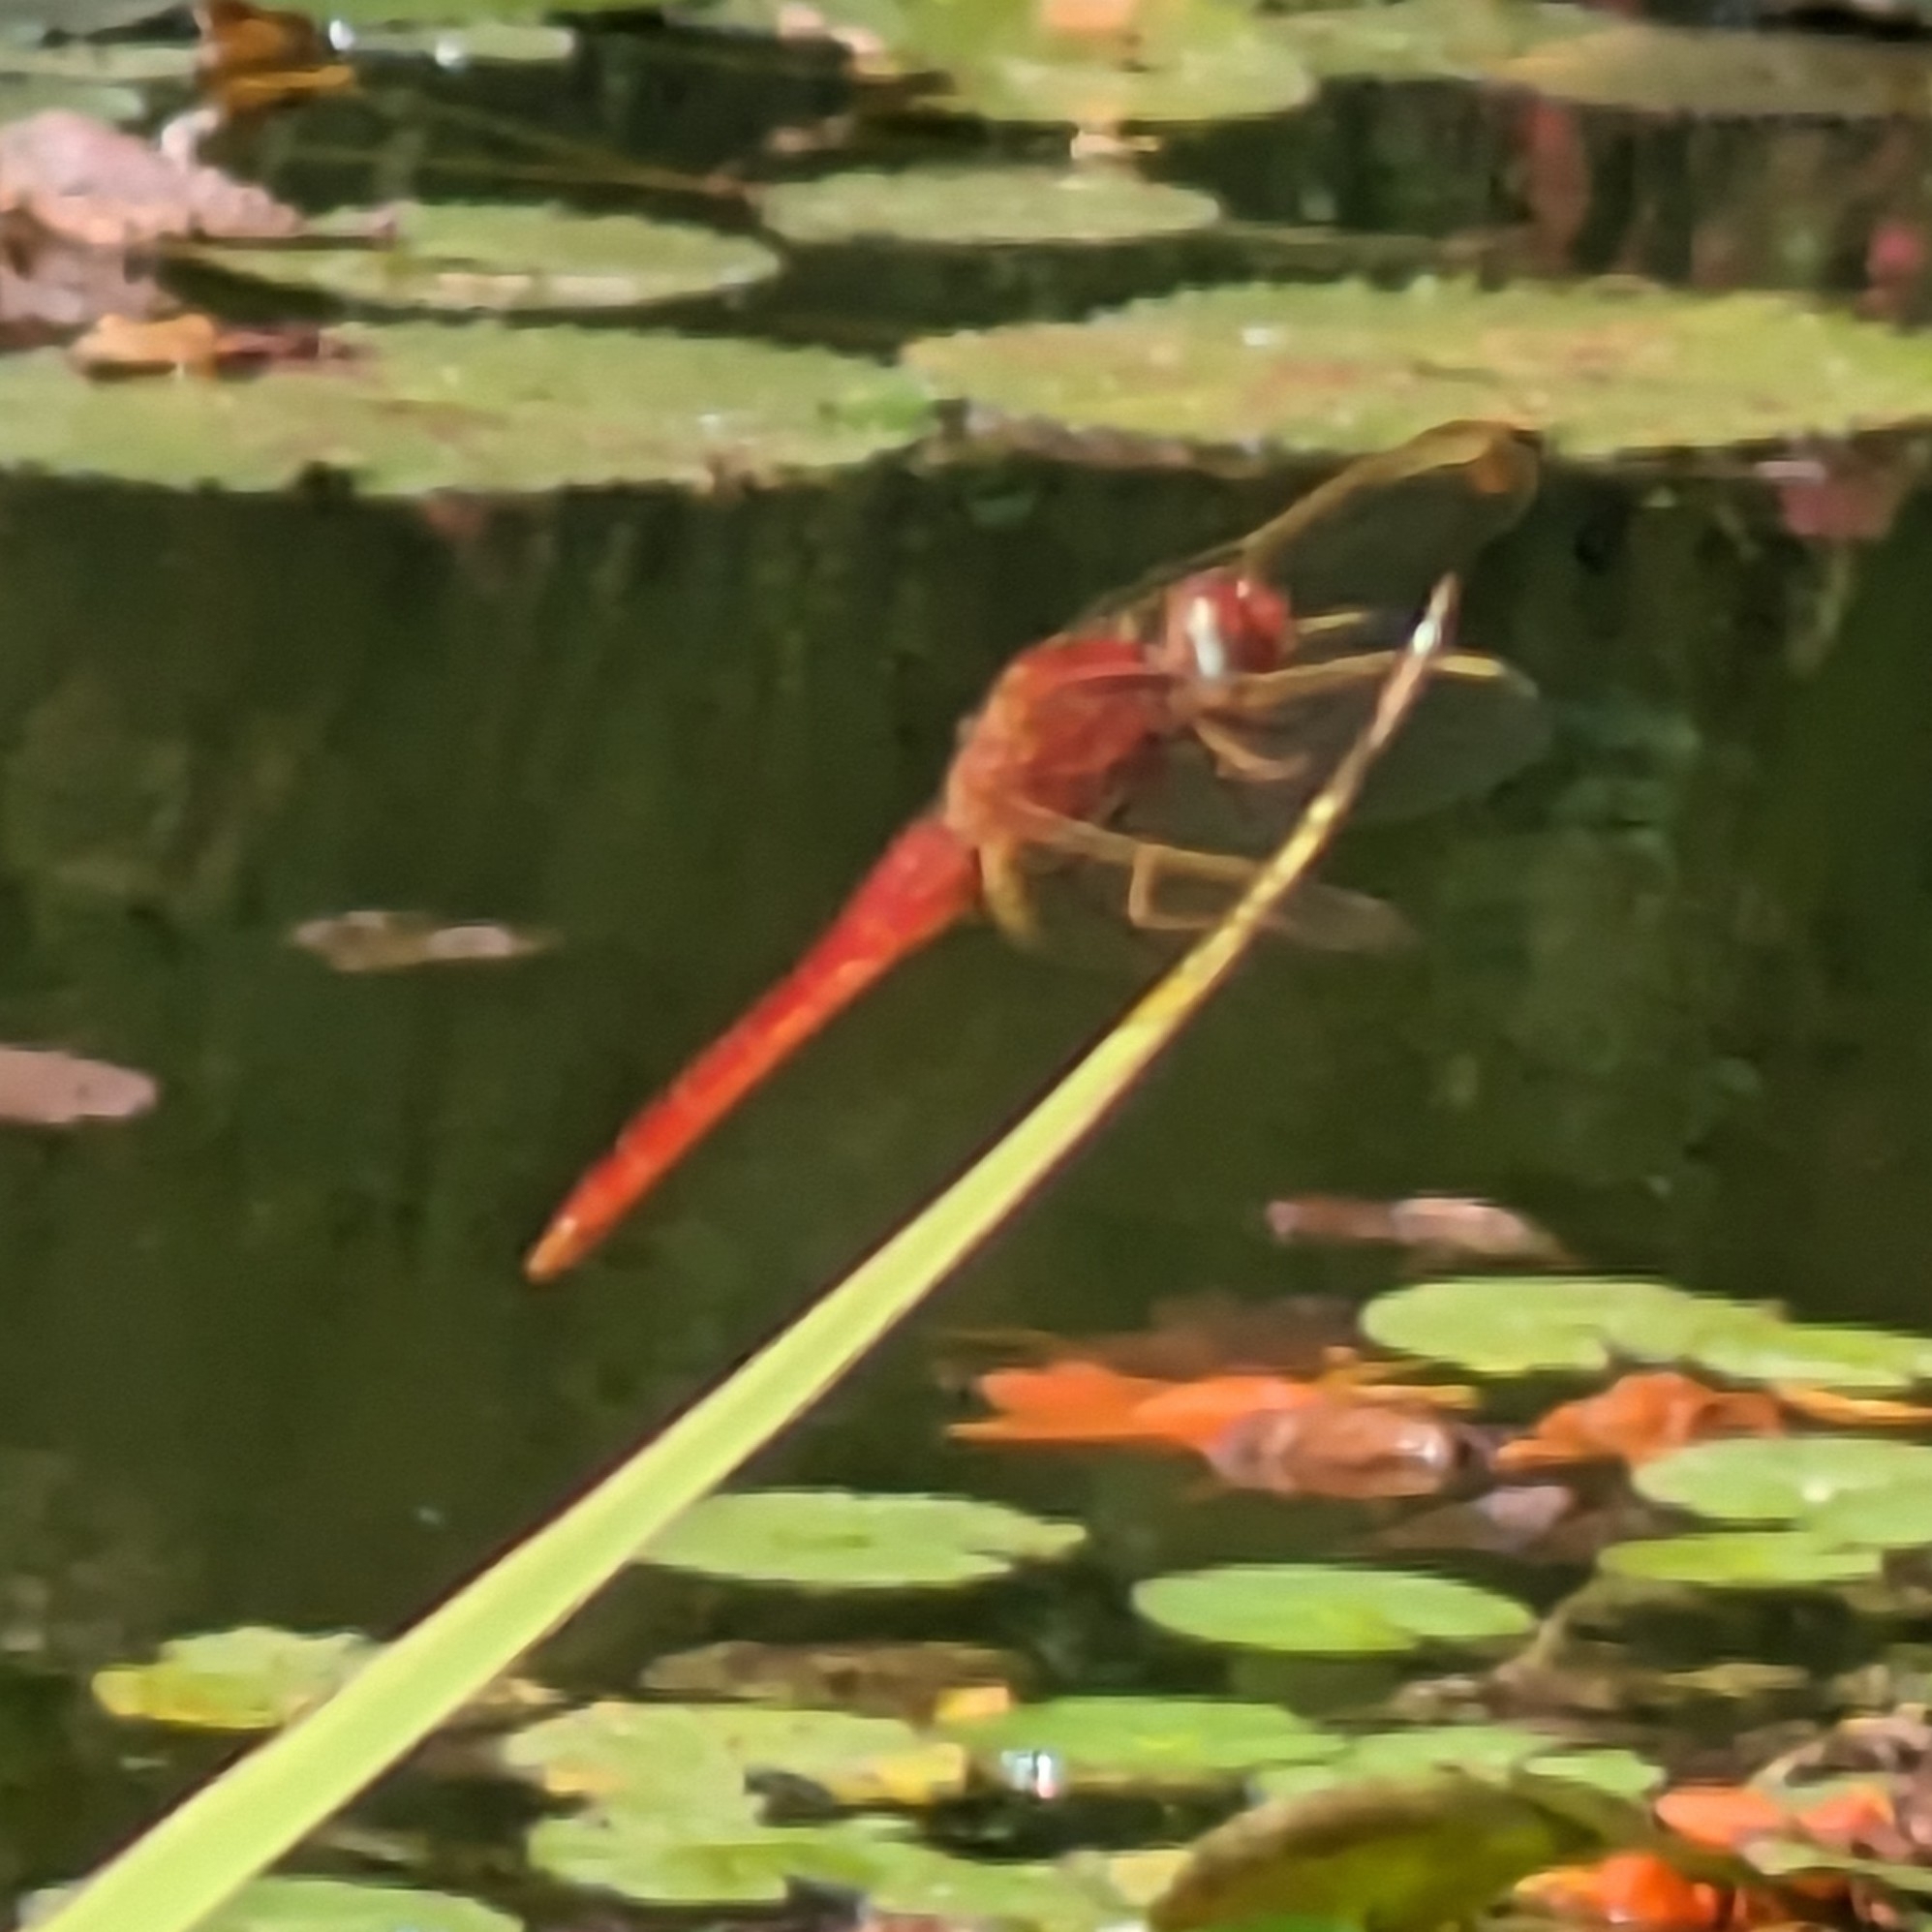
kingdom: Animalia
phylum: Arthropoda
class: Insecta
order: Odonata
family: Libellulidae
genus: Crocothemis
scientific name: Crocothemis erythraea
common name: Scarlet dragonfly
